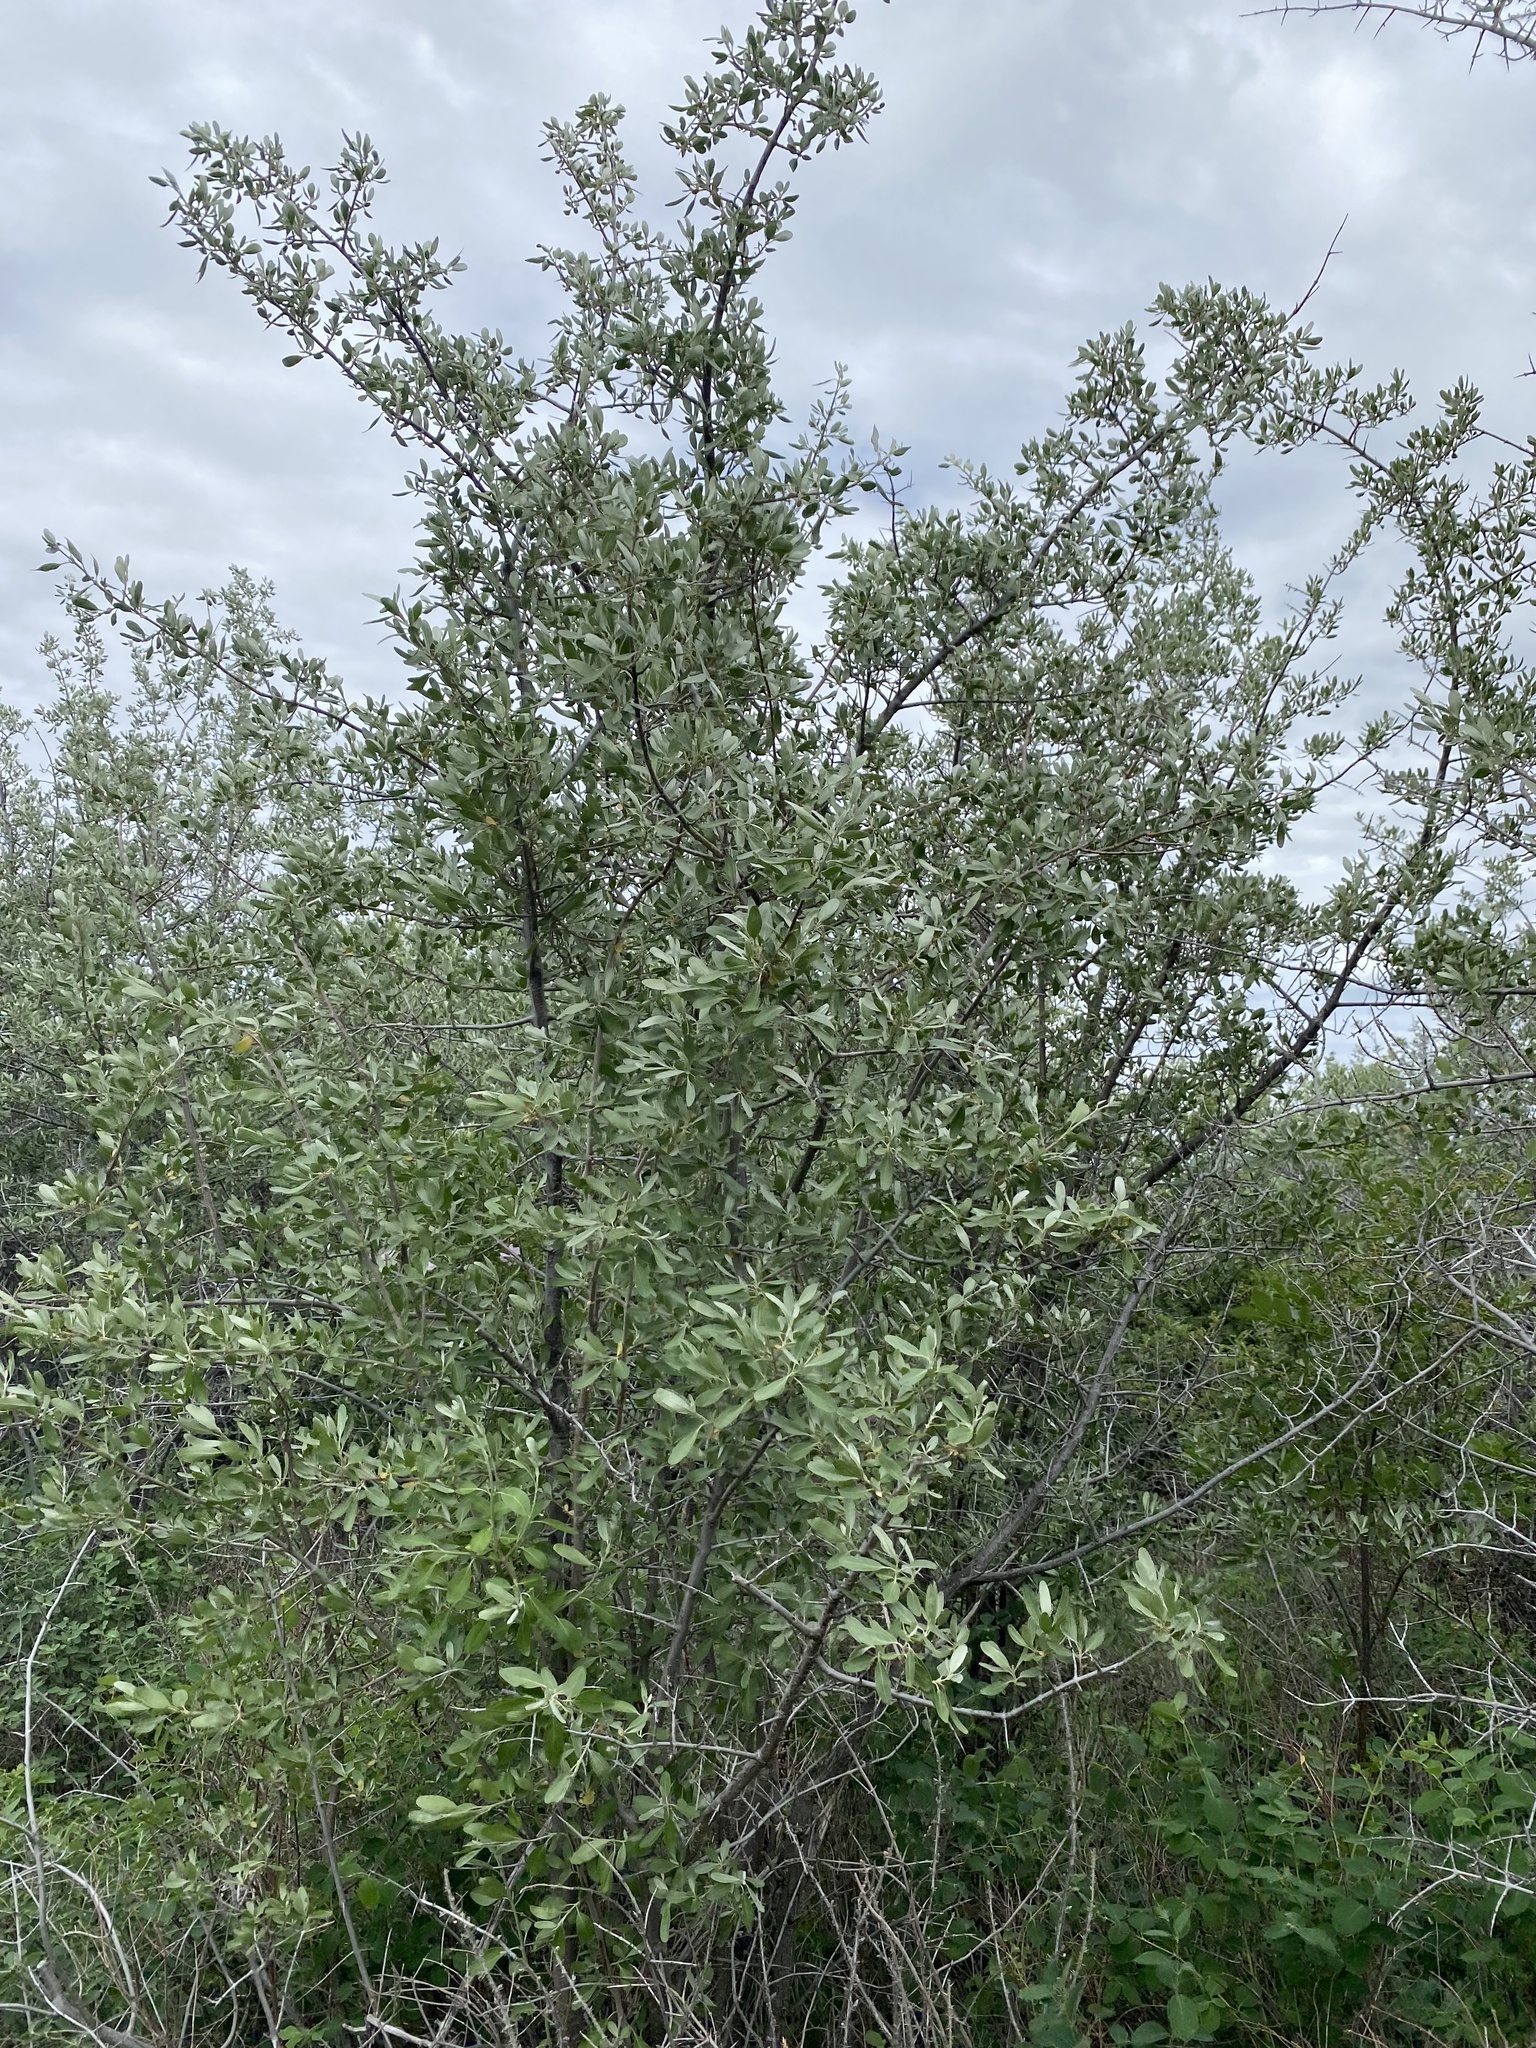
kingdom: Plantae
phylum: Tracheophyta
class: Magnoliopsida
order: Rosales
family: Elaeagnaceae
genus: Shepherdia
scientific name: Shepherdia argentea
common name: Silver buffaloberry
